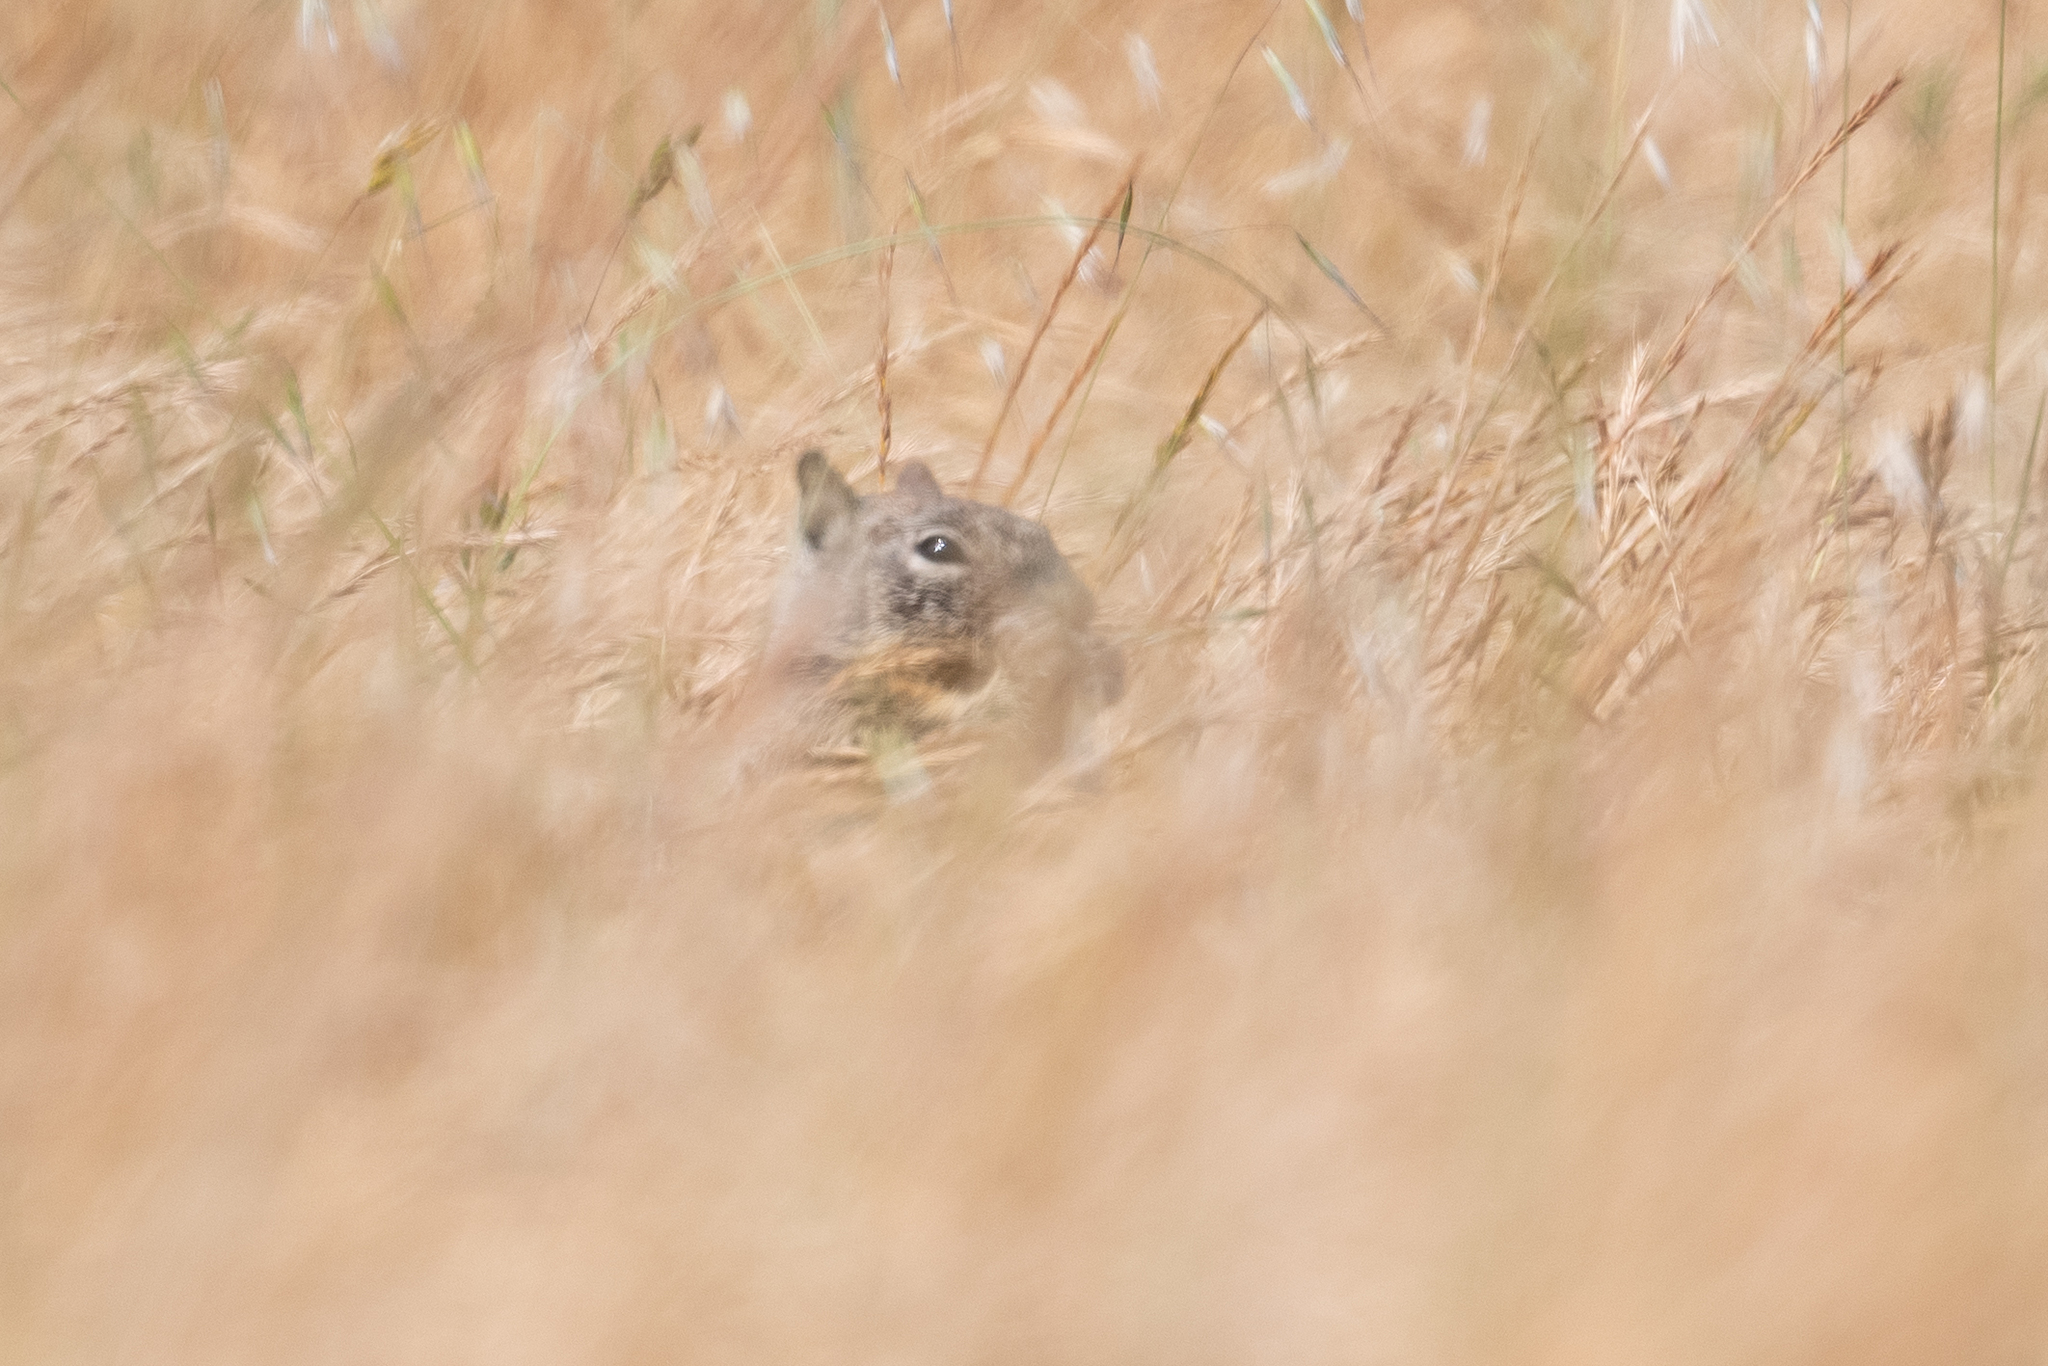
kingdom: Animalia
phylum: Chordata
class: Mammalia
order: Rodentia
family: Sciuridae
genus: Otospermophilus
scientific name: Otospermophilus beecheyi
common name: California ground squirrel
